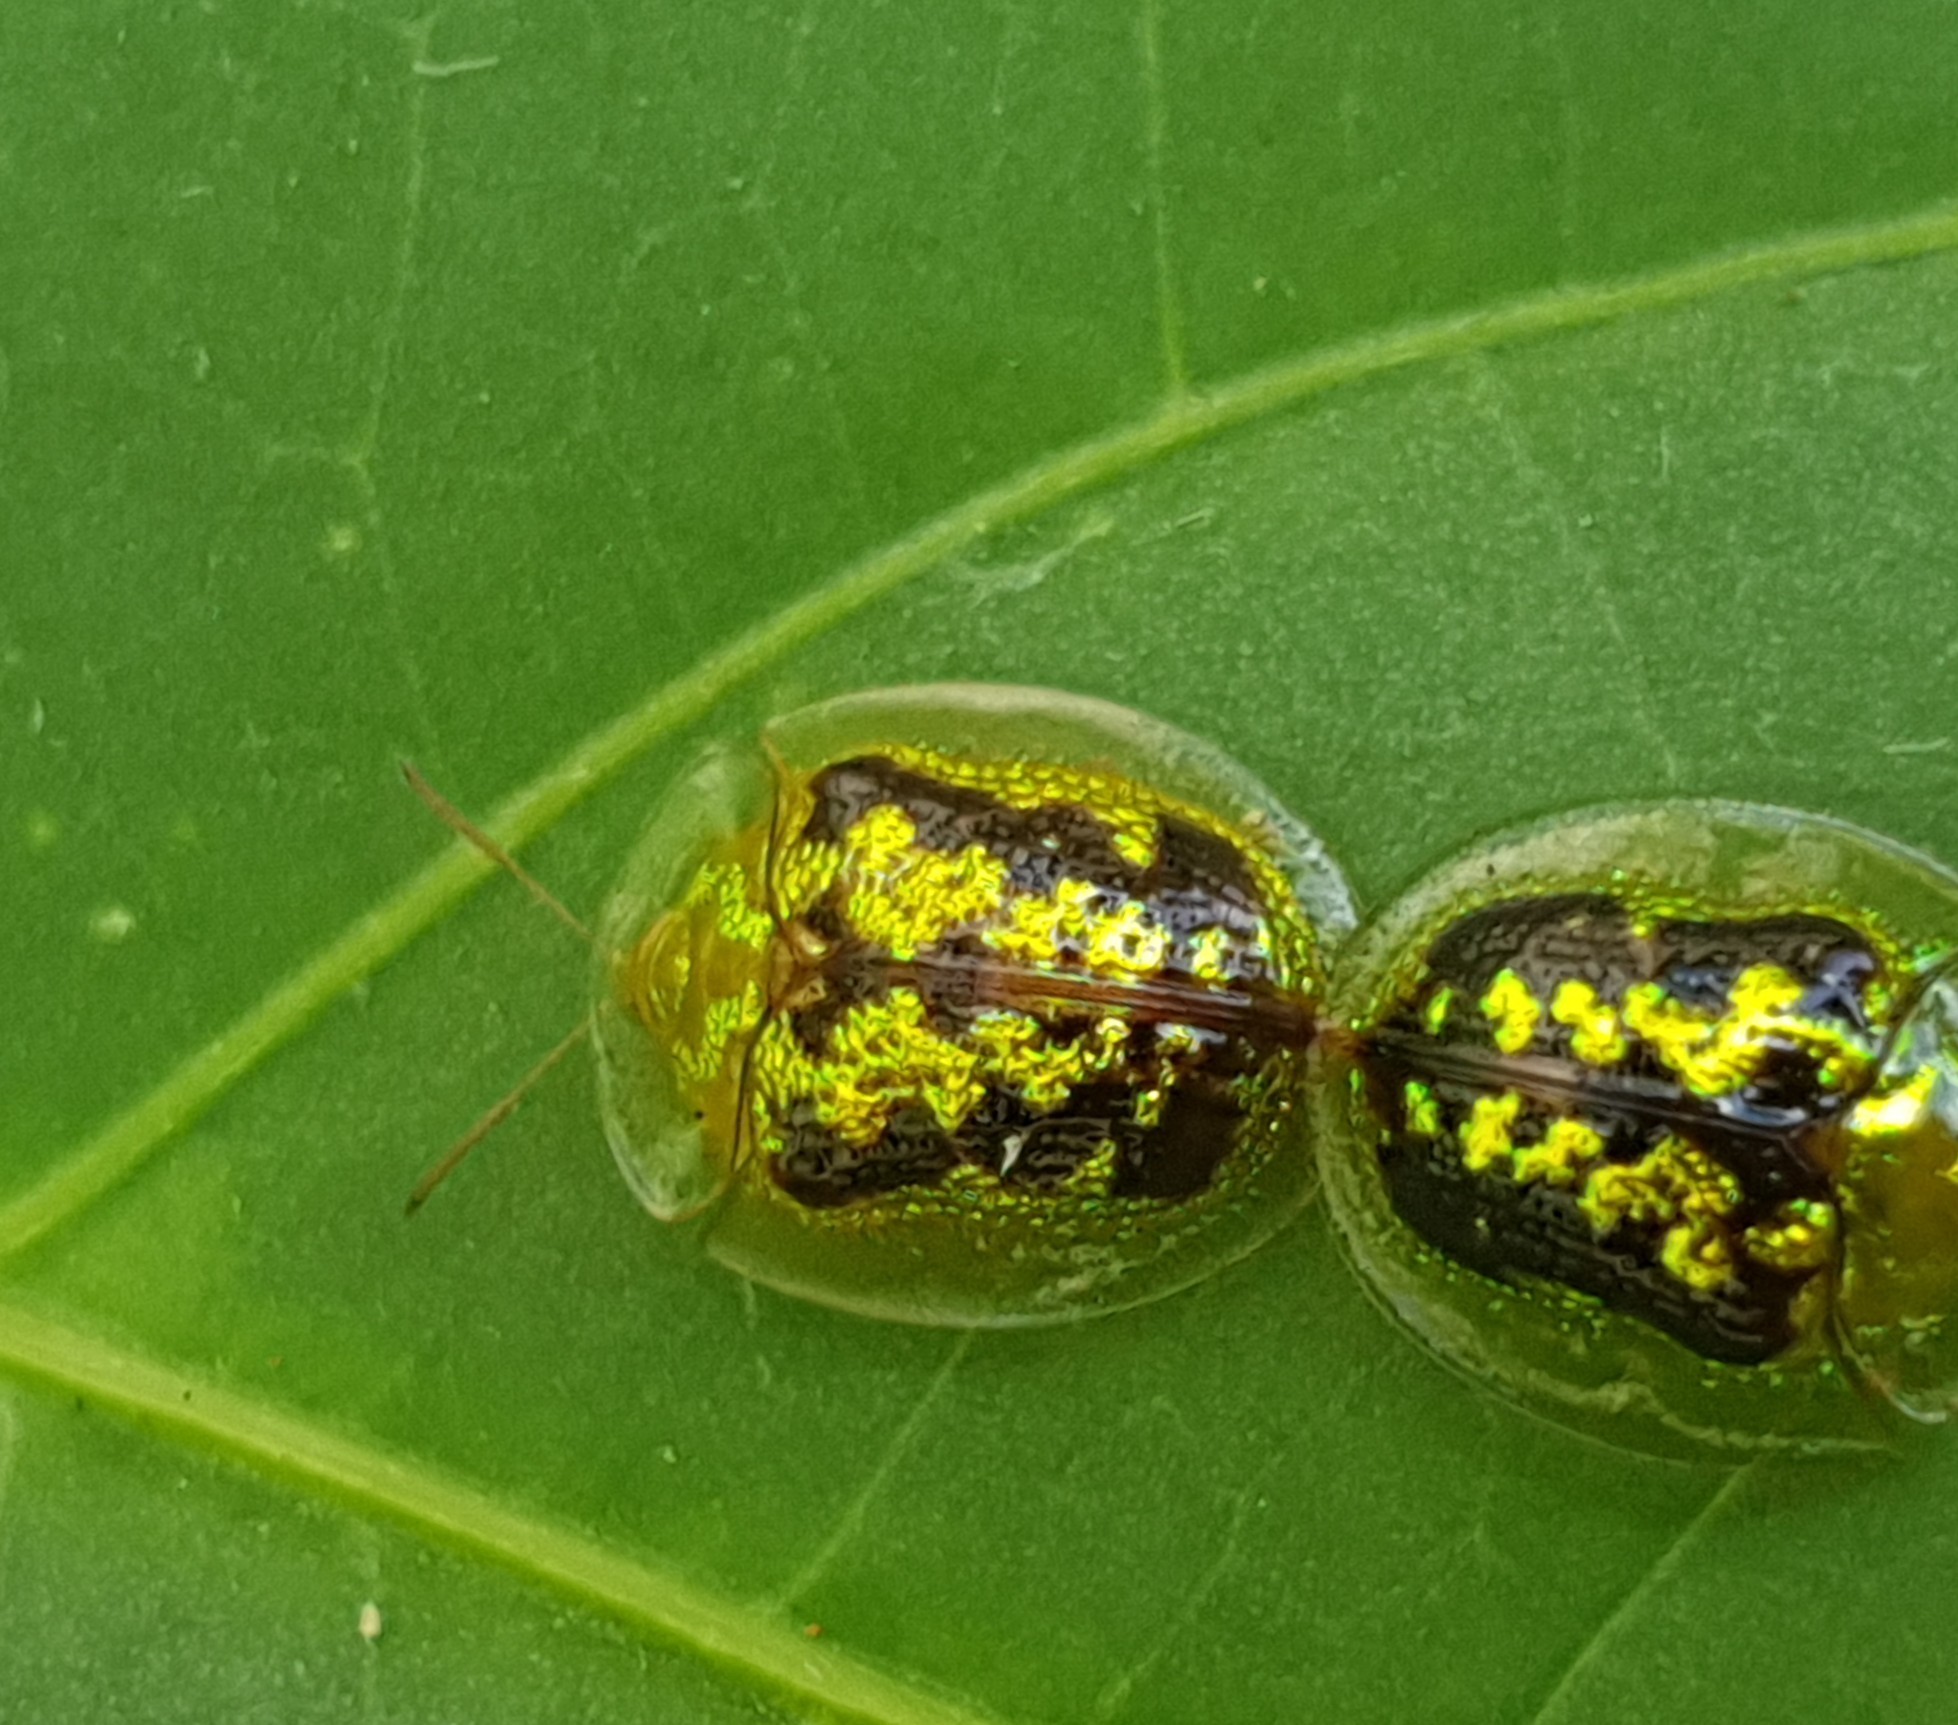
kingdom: Animalia
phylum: Arthropoda
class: Insecta
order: Coleoptera
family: Chrysomelidae
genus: Cassida
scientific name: Cassida diomma
